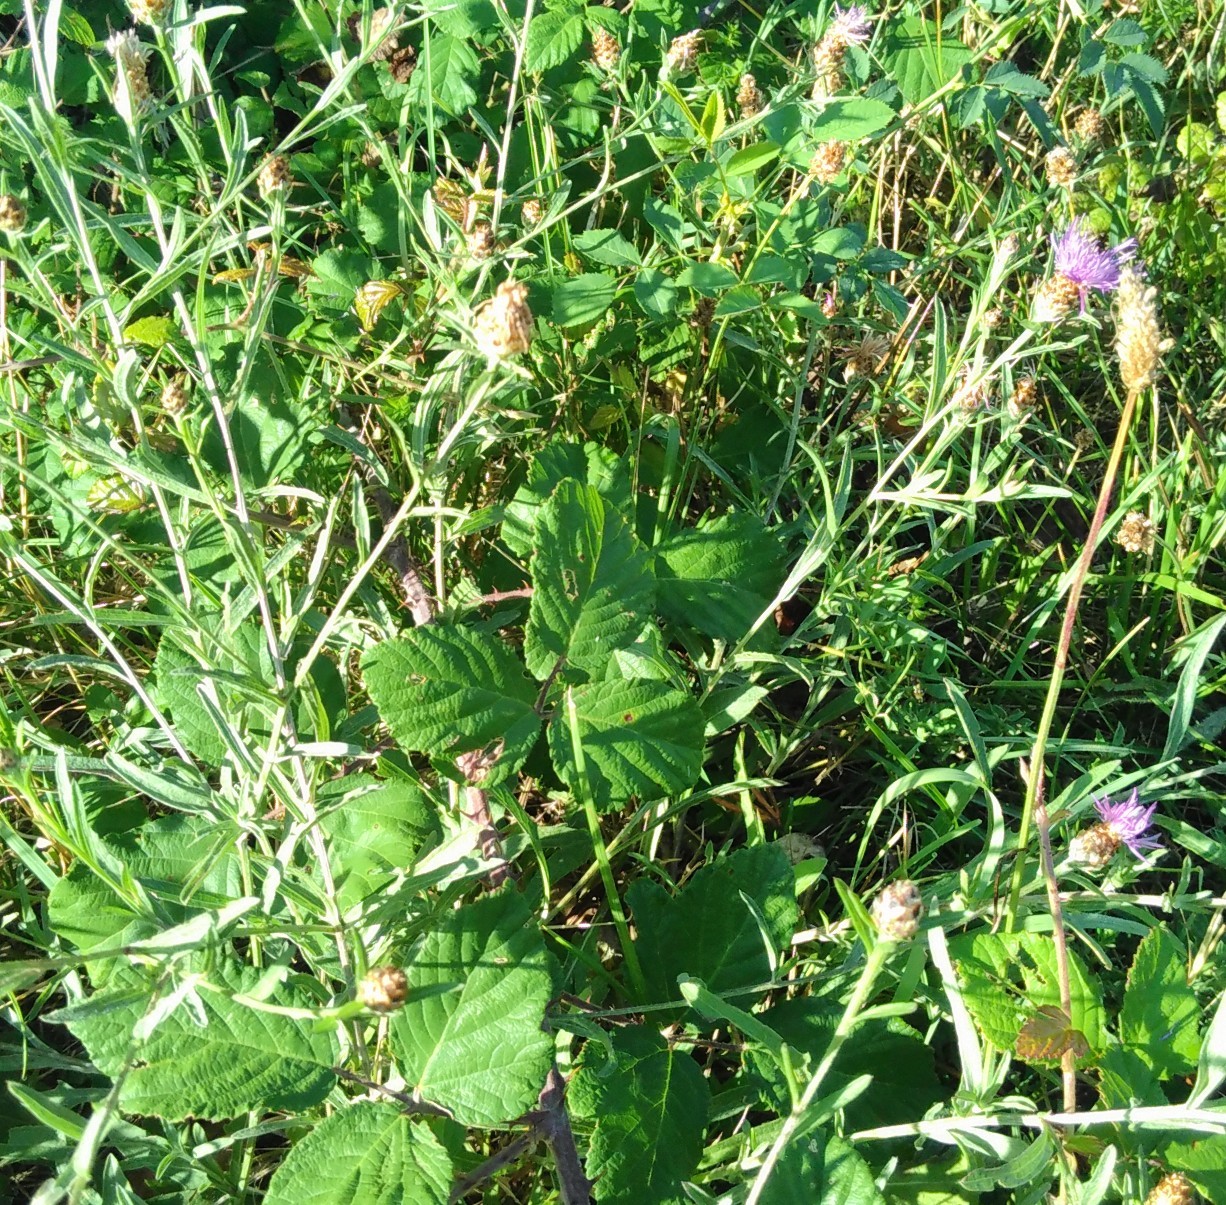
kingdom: Plantae
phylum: Tracheophyta
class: Magnoliopsida
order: Asterales
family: Asteraceae
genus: Centaurea
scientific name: Centaurea jacea
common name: Brown knapweed
